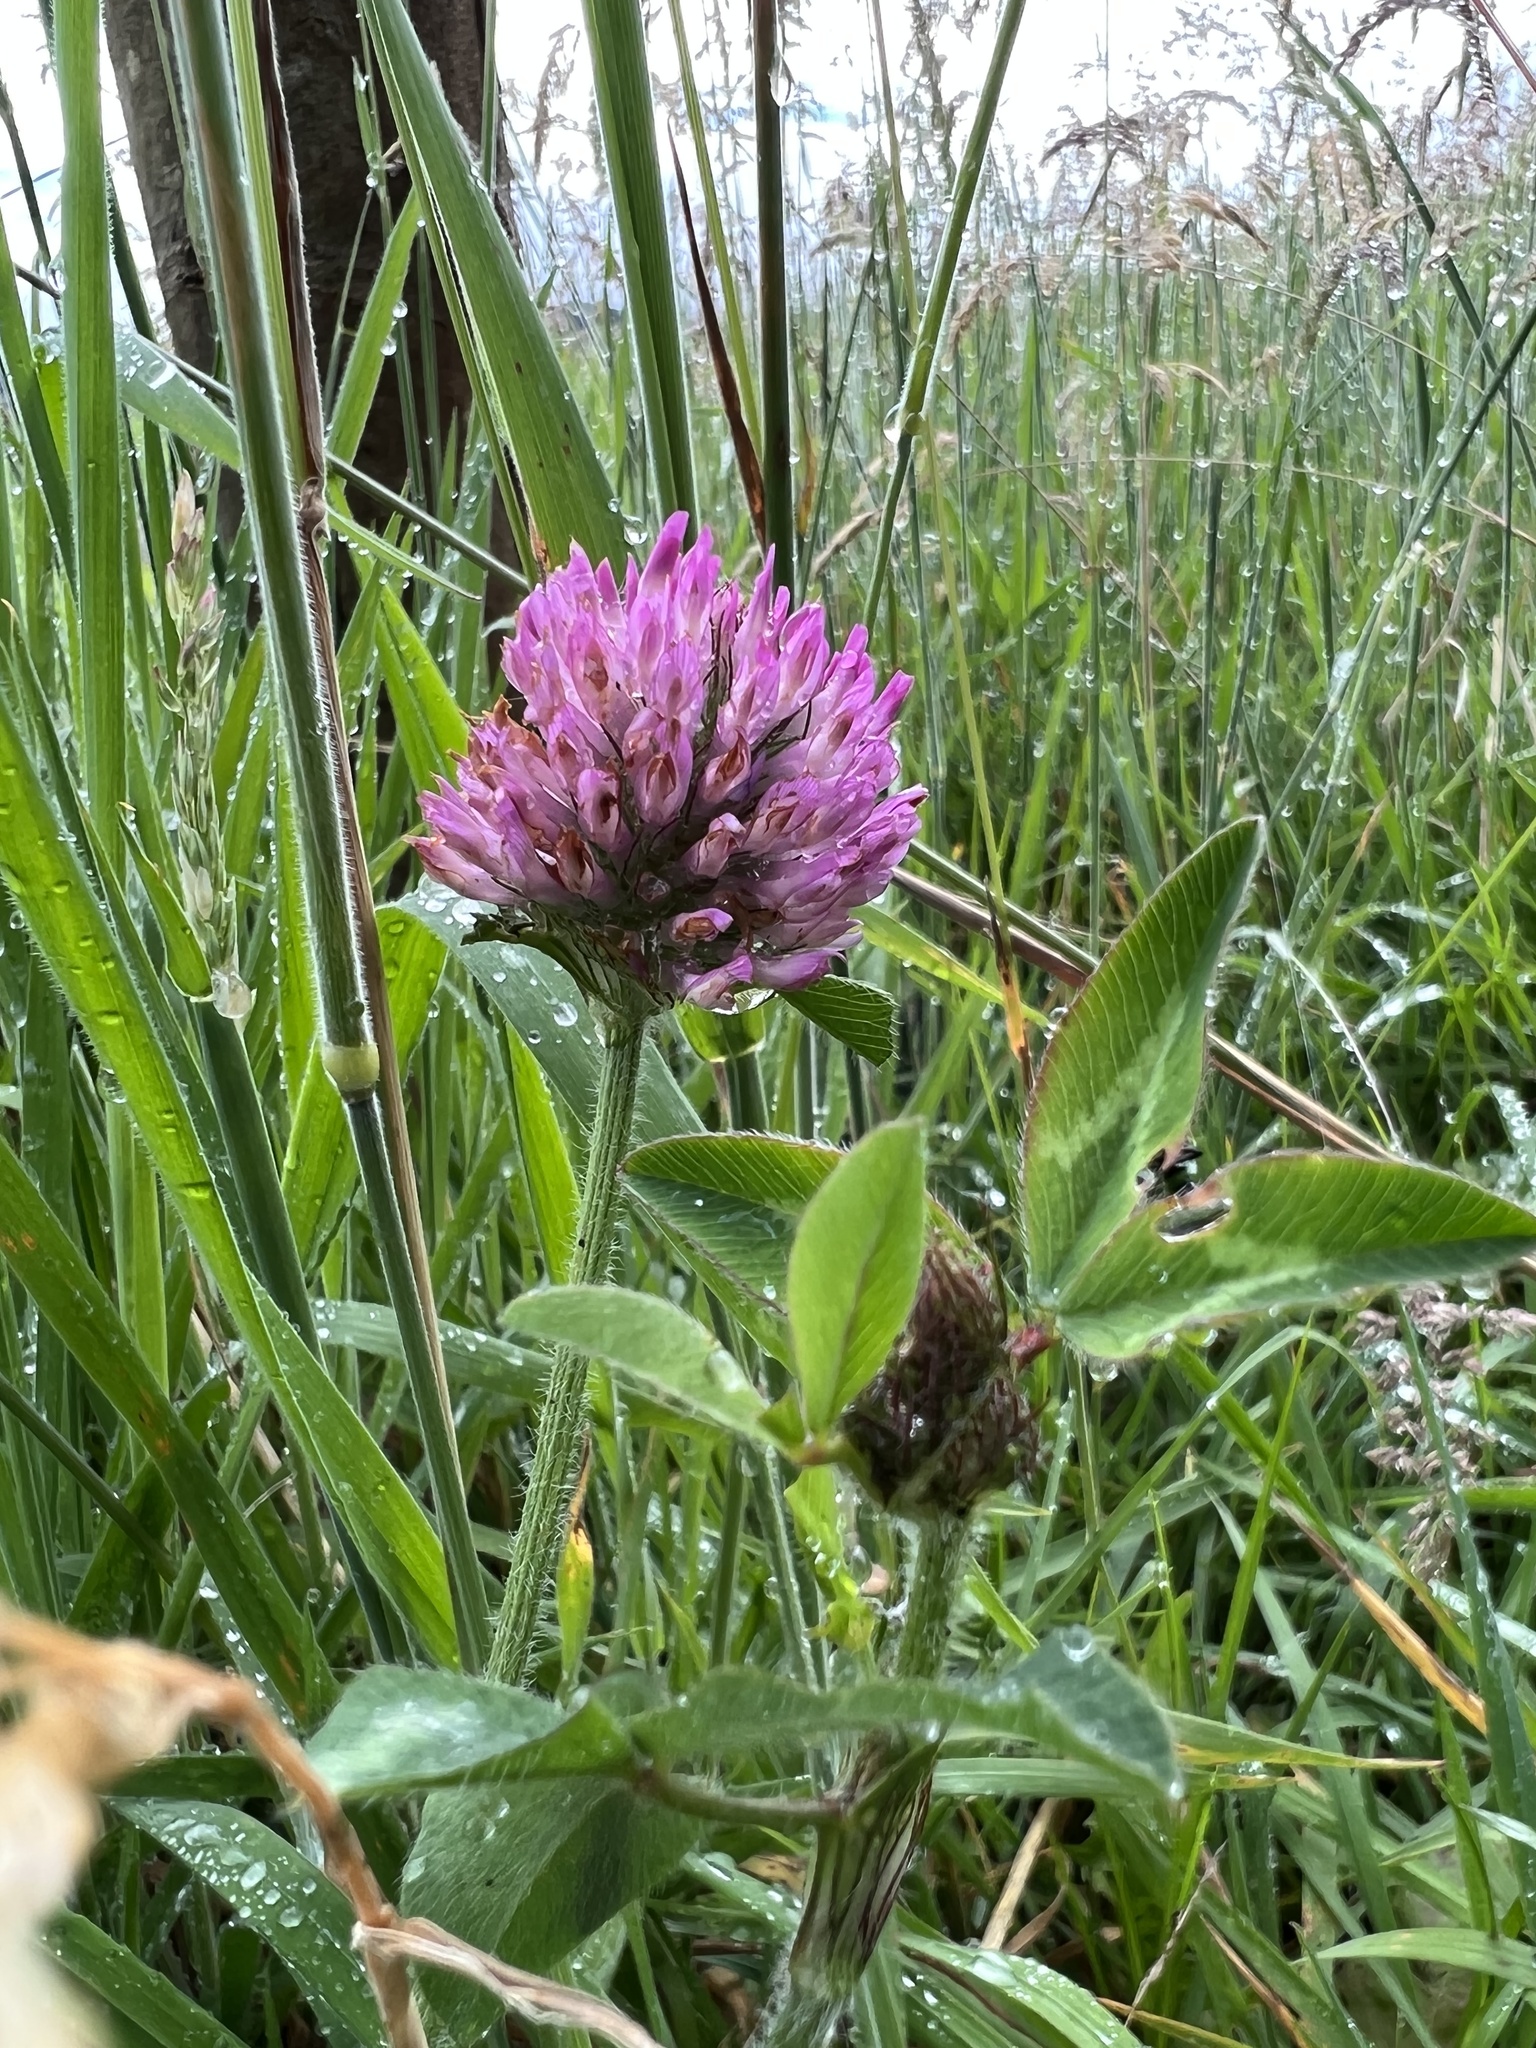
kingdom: Plantae
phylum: Tracheophyta
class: Magnoliopsida
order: Fabales
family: Fabaceae
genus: Trifolium
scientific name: Trifolium pratense
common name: Red clover
